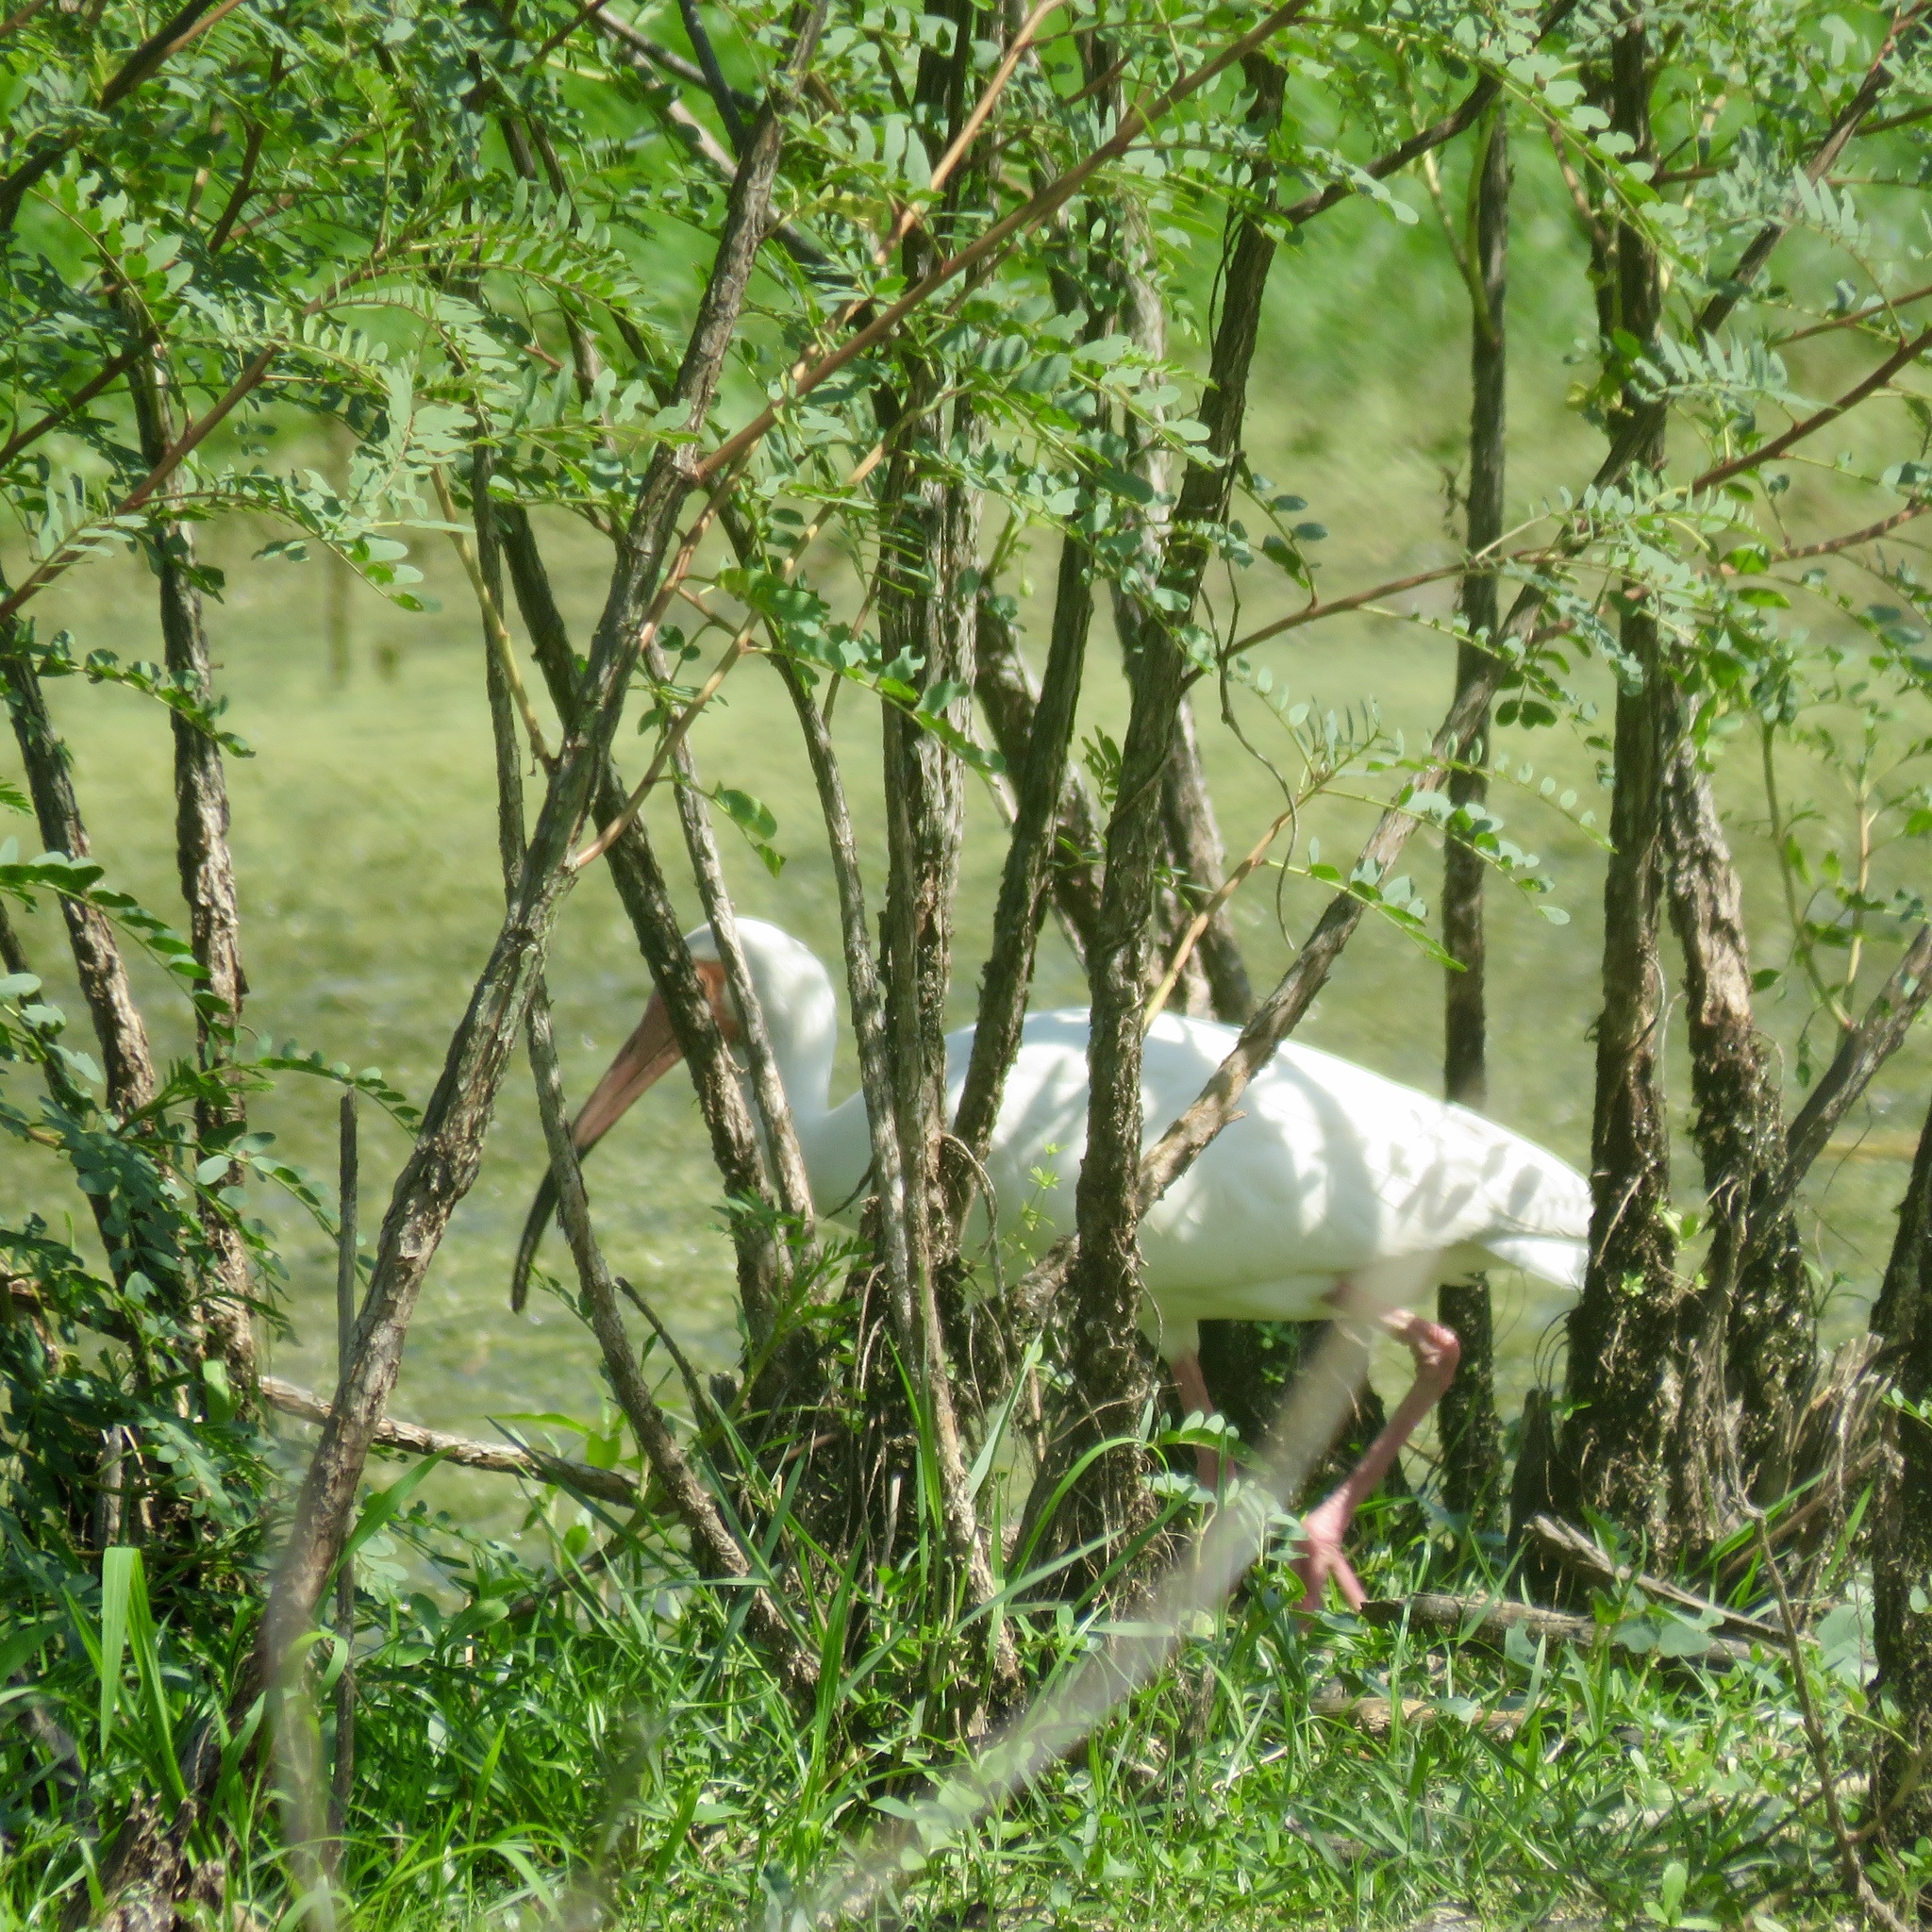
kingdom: Animalia
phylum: Chordata
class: Aves
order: Pelecaniformes
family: Threskiornithidae
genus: Eudocimus
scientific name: Eudocimus albus
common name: White ibis
